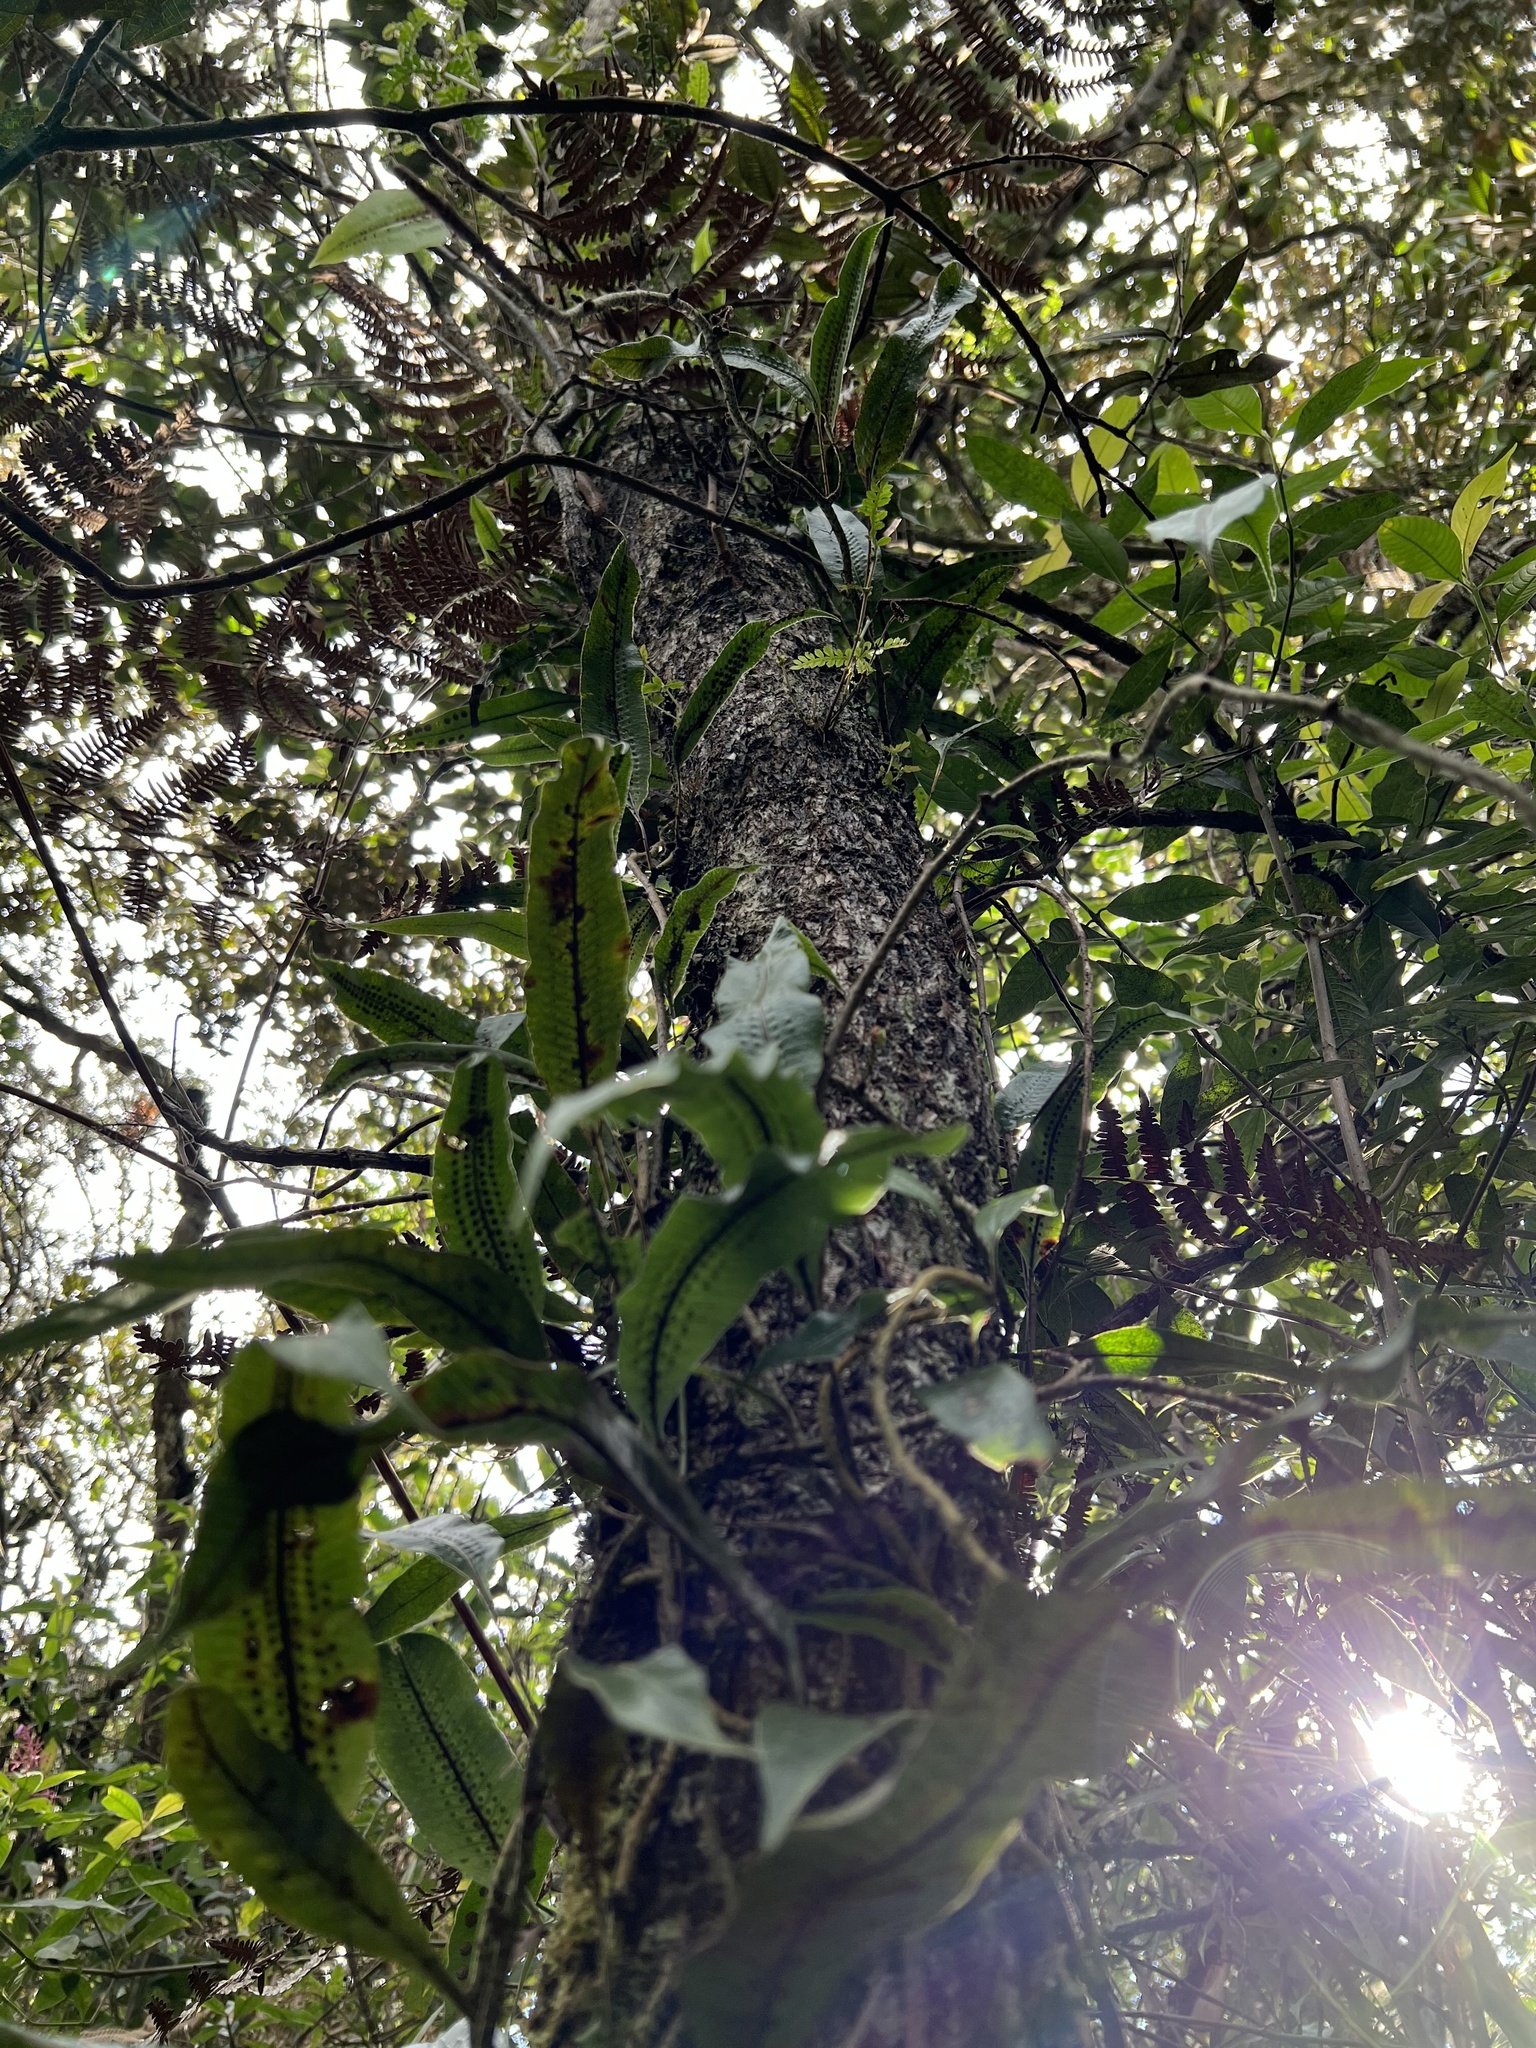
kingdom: Plantae
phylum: Tracheophyta
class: Magnoliopsida
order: Oxalidales
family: Cunoniaceae
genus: Weinmannia
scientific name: Weinmannia tomentosa
